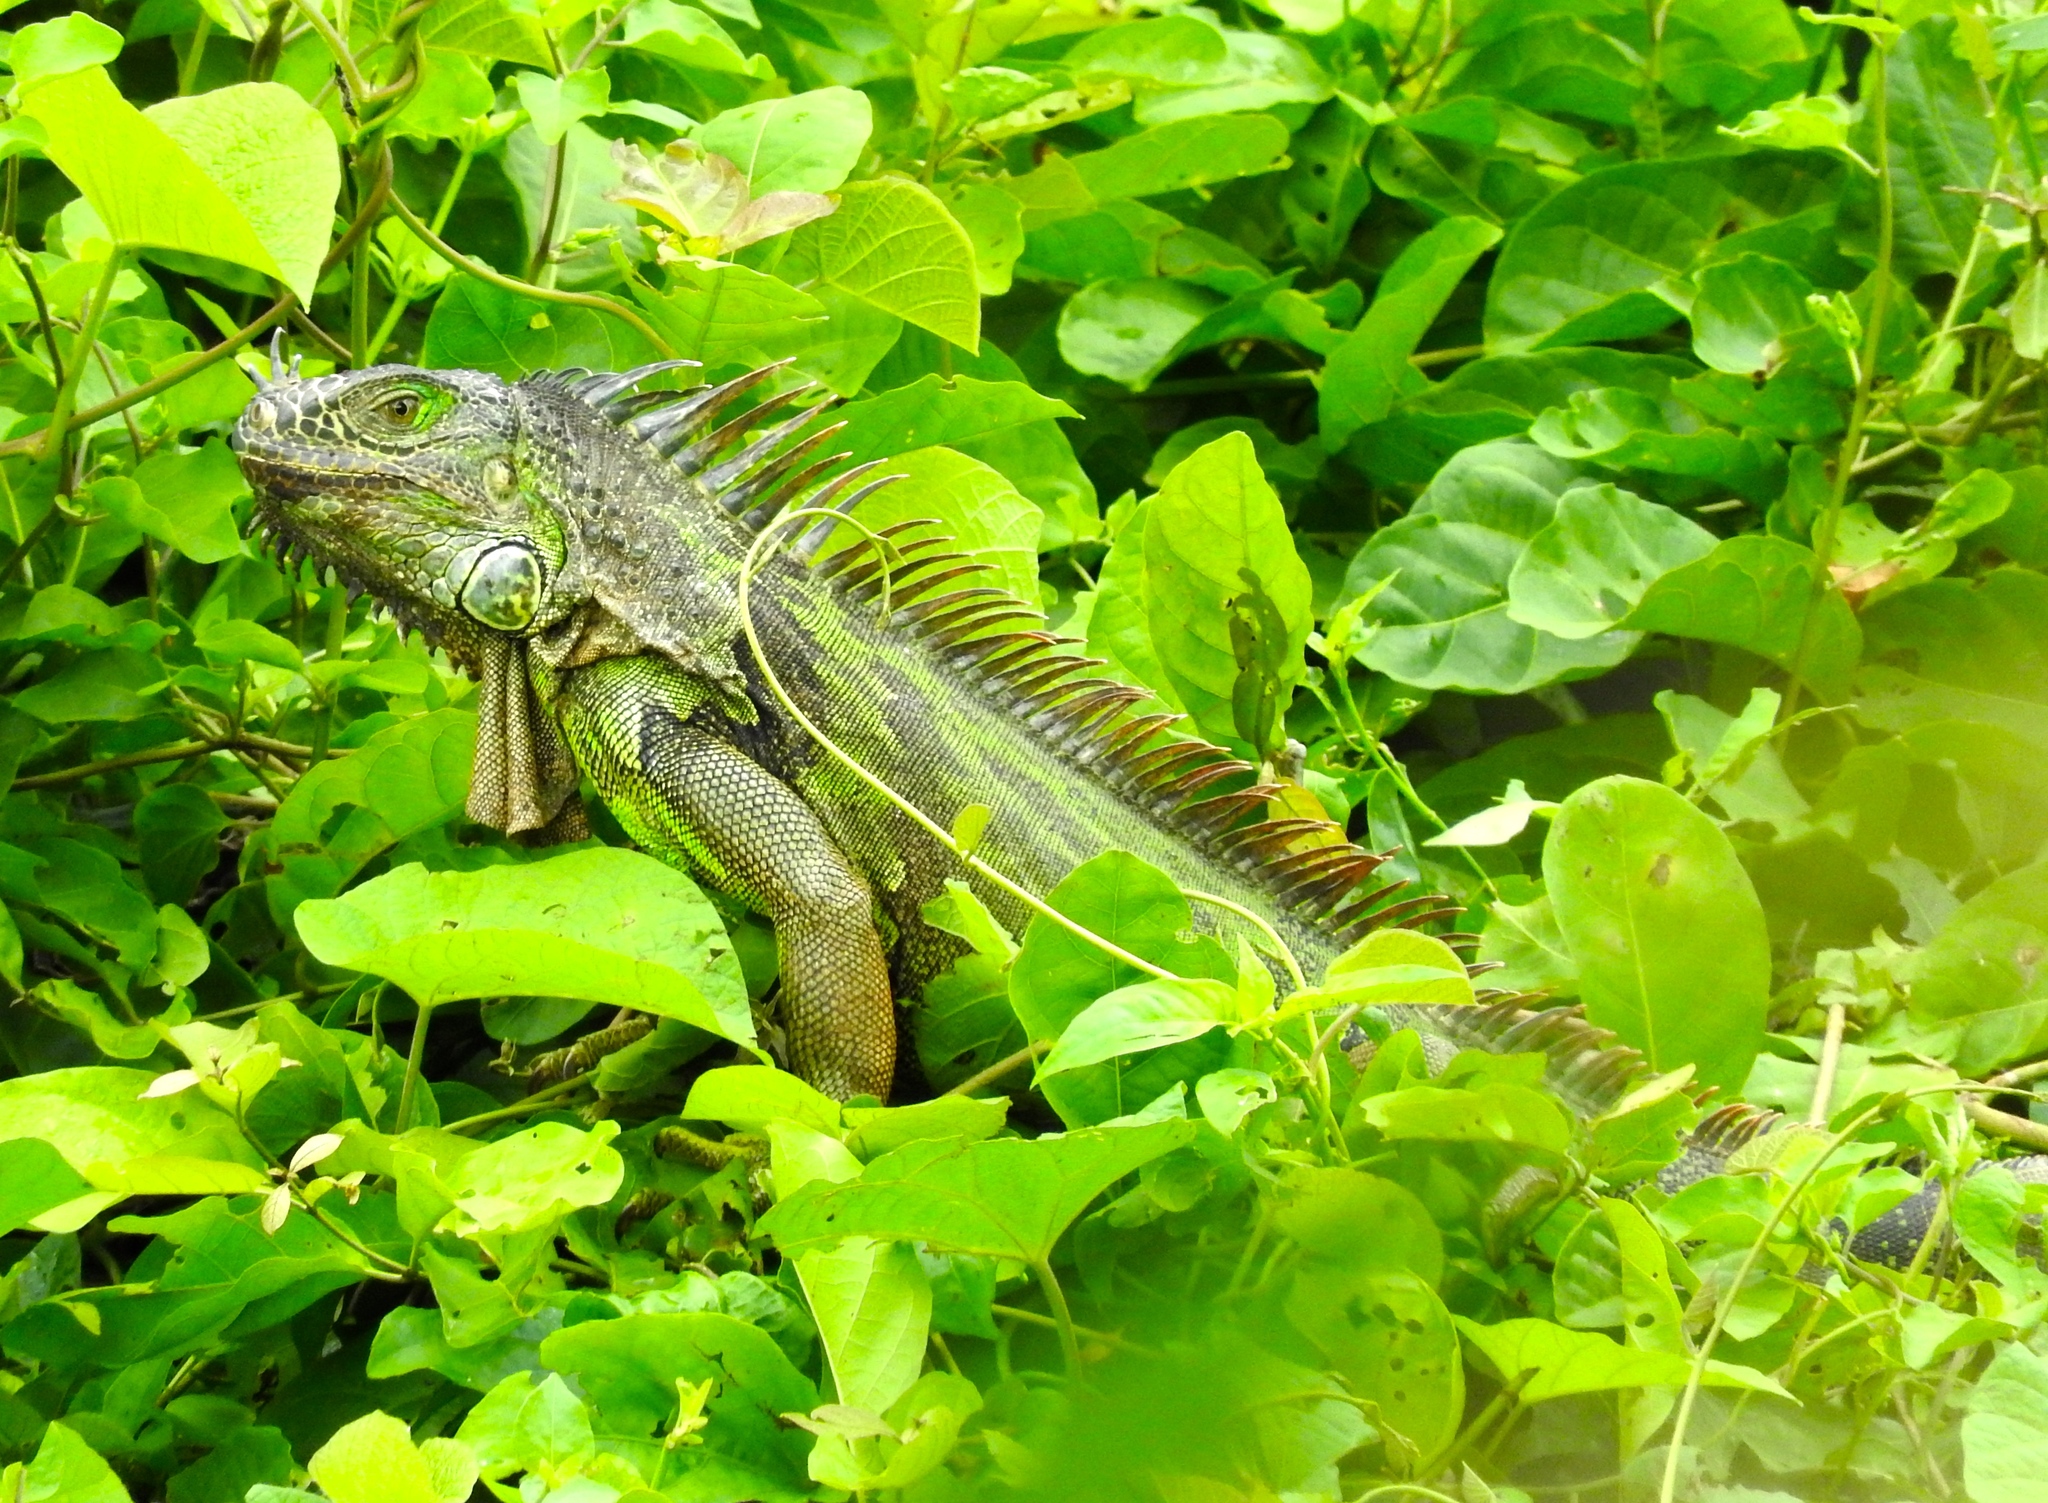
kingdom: Animalia
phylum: Chordata
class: Squamata
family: Iguanidae
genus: Iguana
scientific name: Iguana iguana
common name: Green iguana
